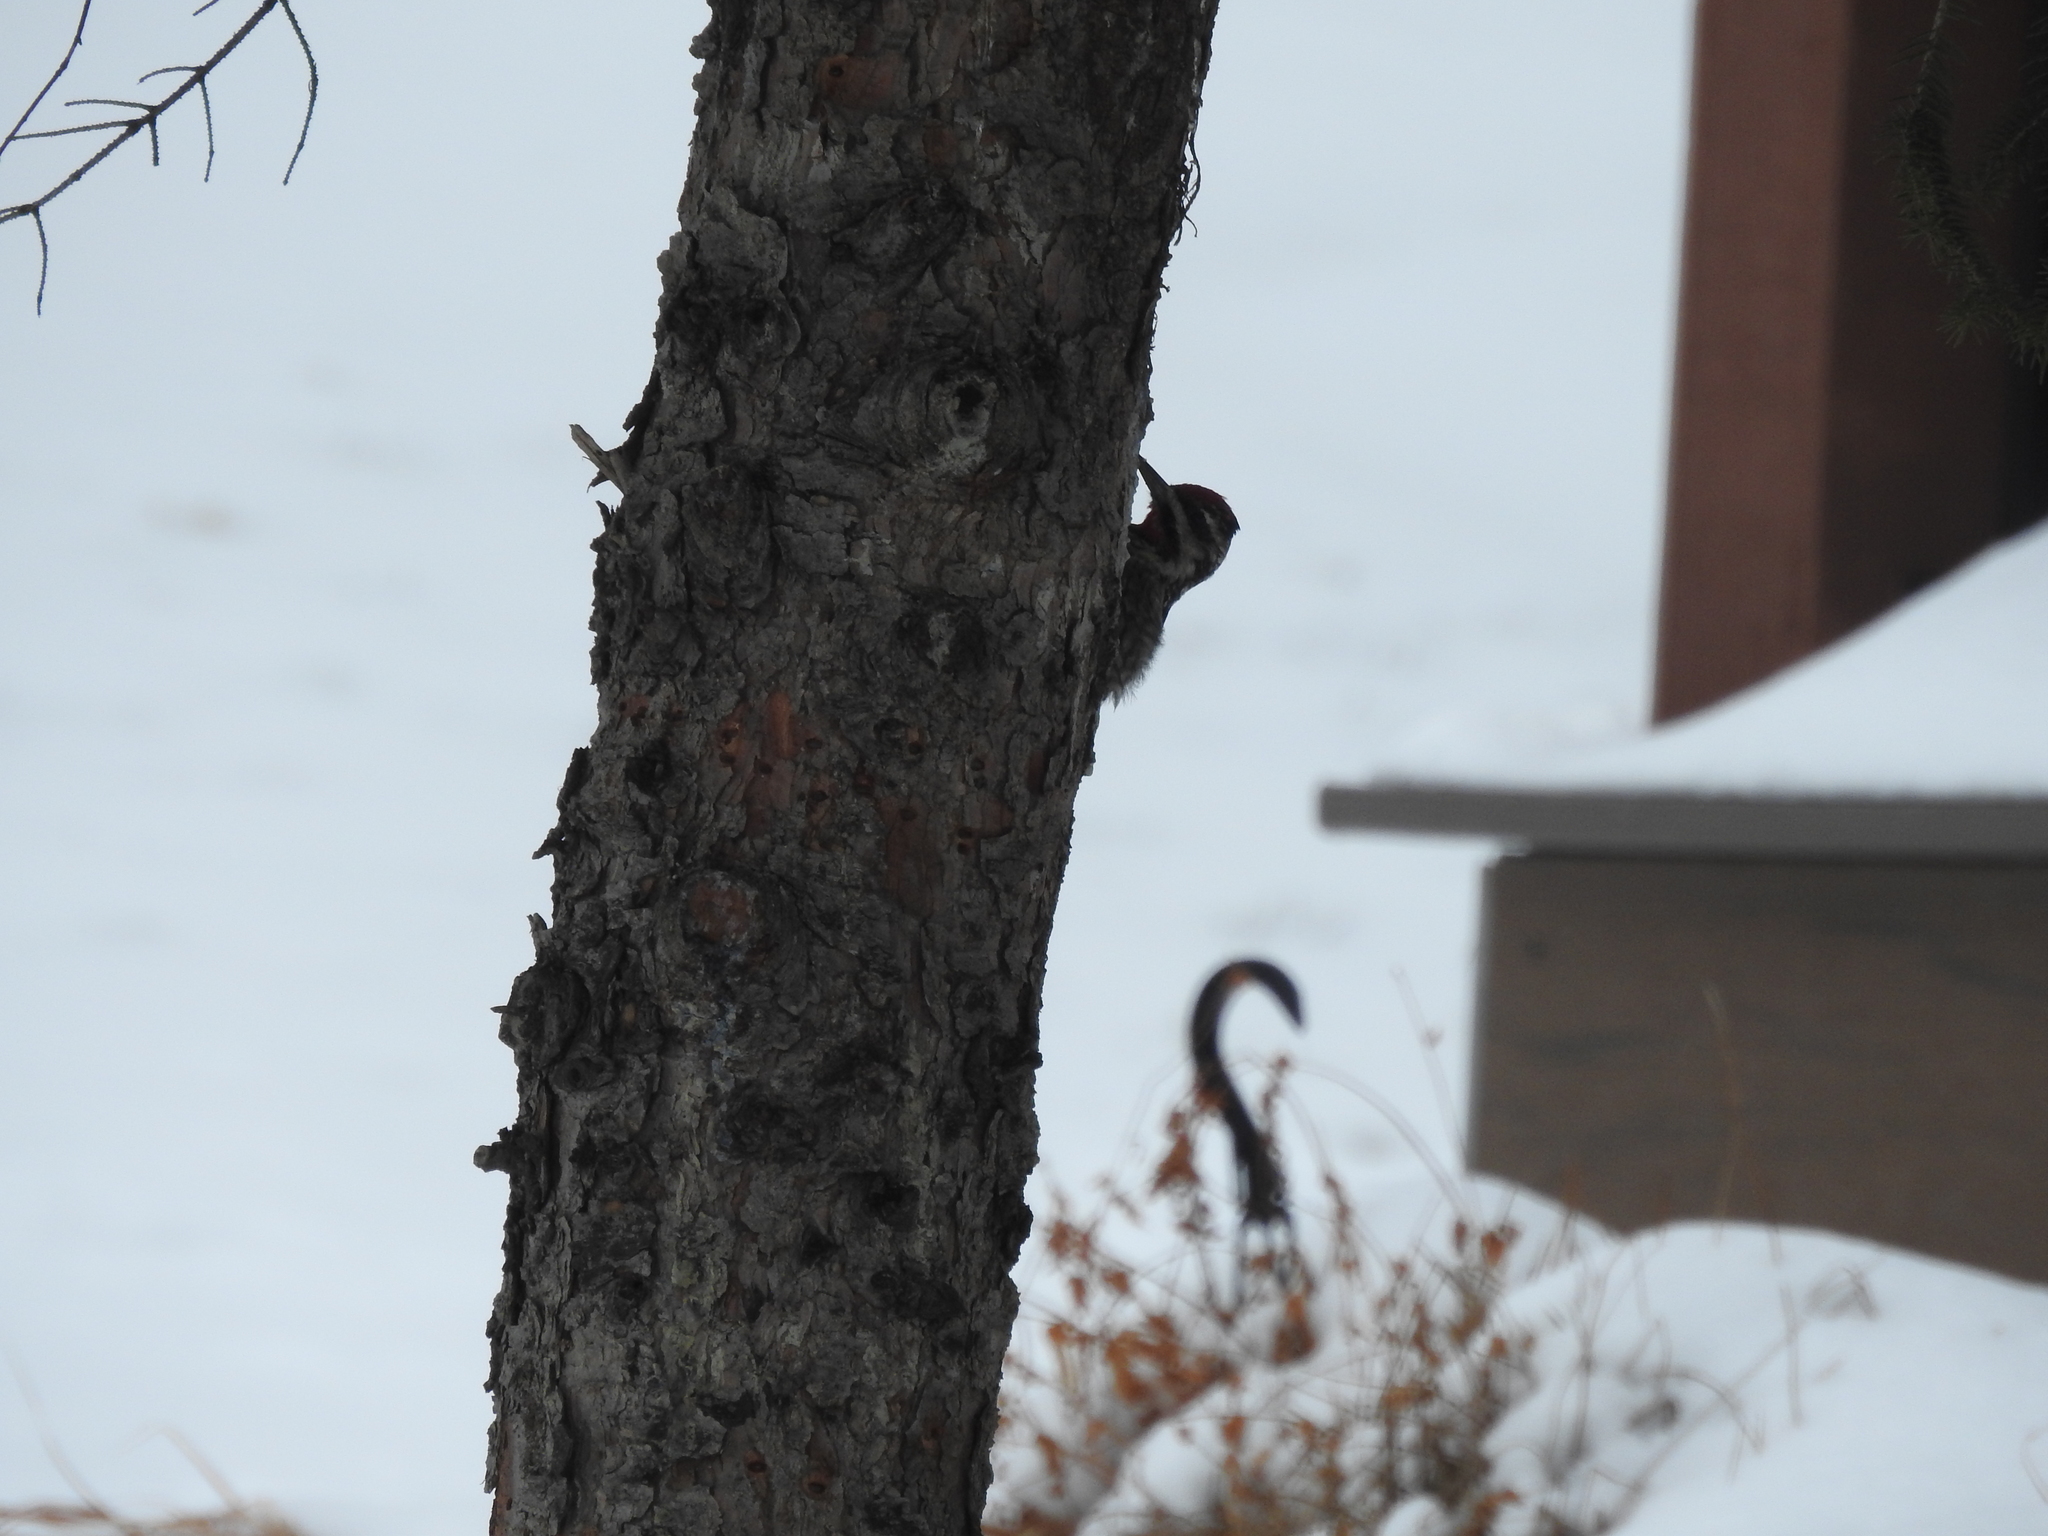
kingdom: Animalia
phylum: Chordata
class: Aves
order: Piciformes
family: Picidae
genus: Sphyrapicus
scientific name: Sphyrapicus varius
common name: Yellow-bellied sapsucker
